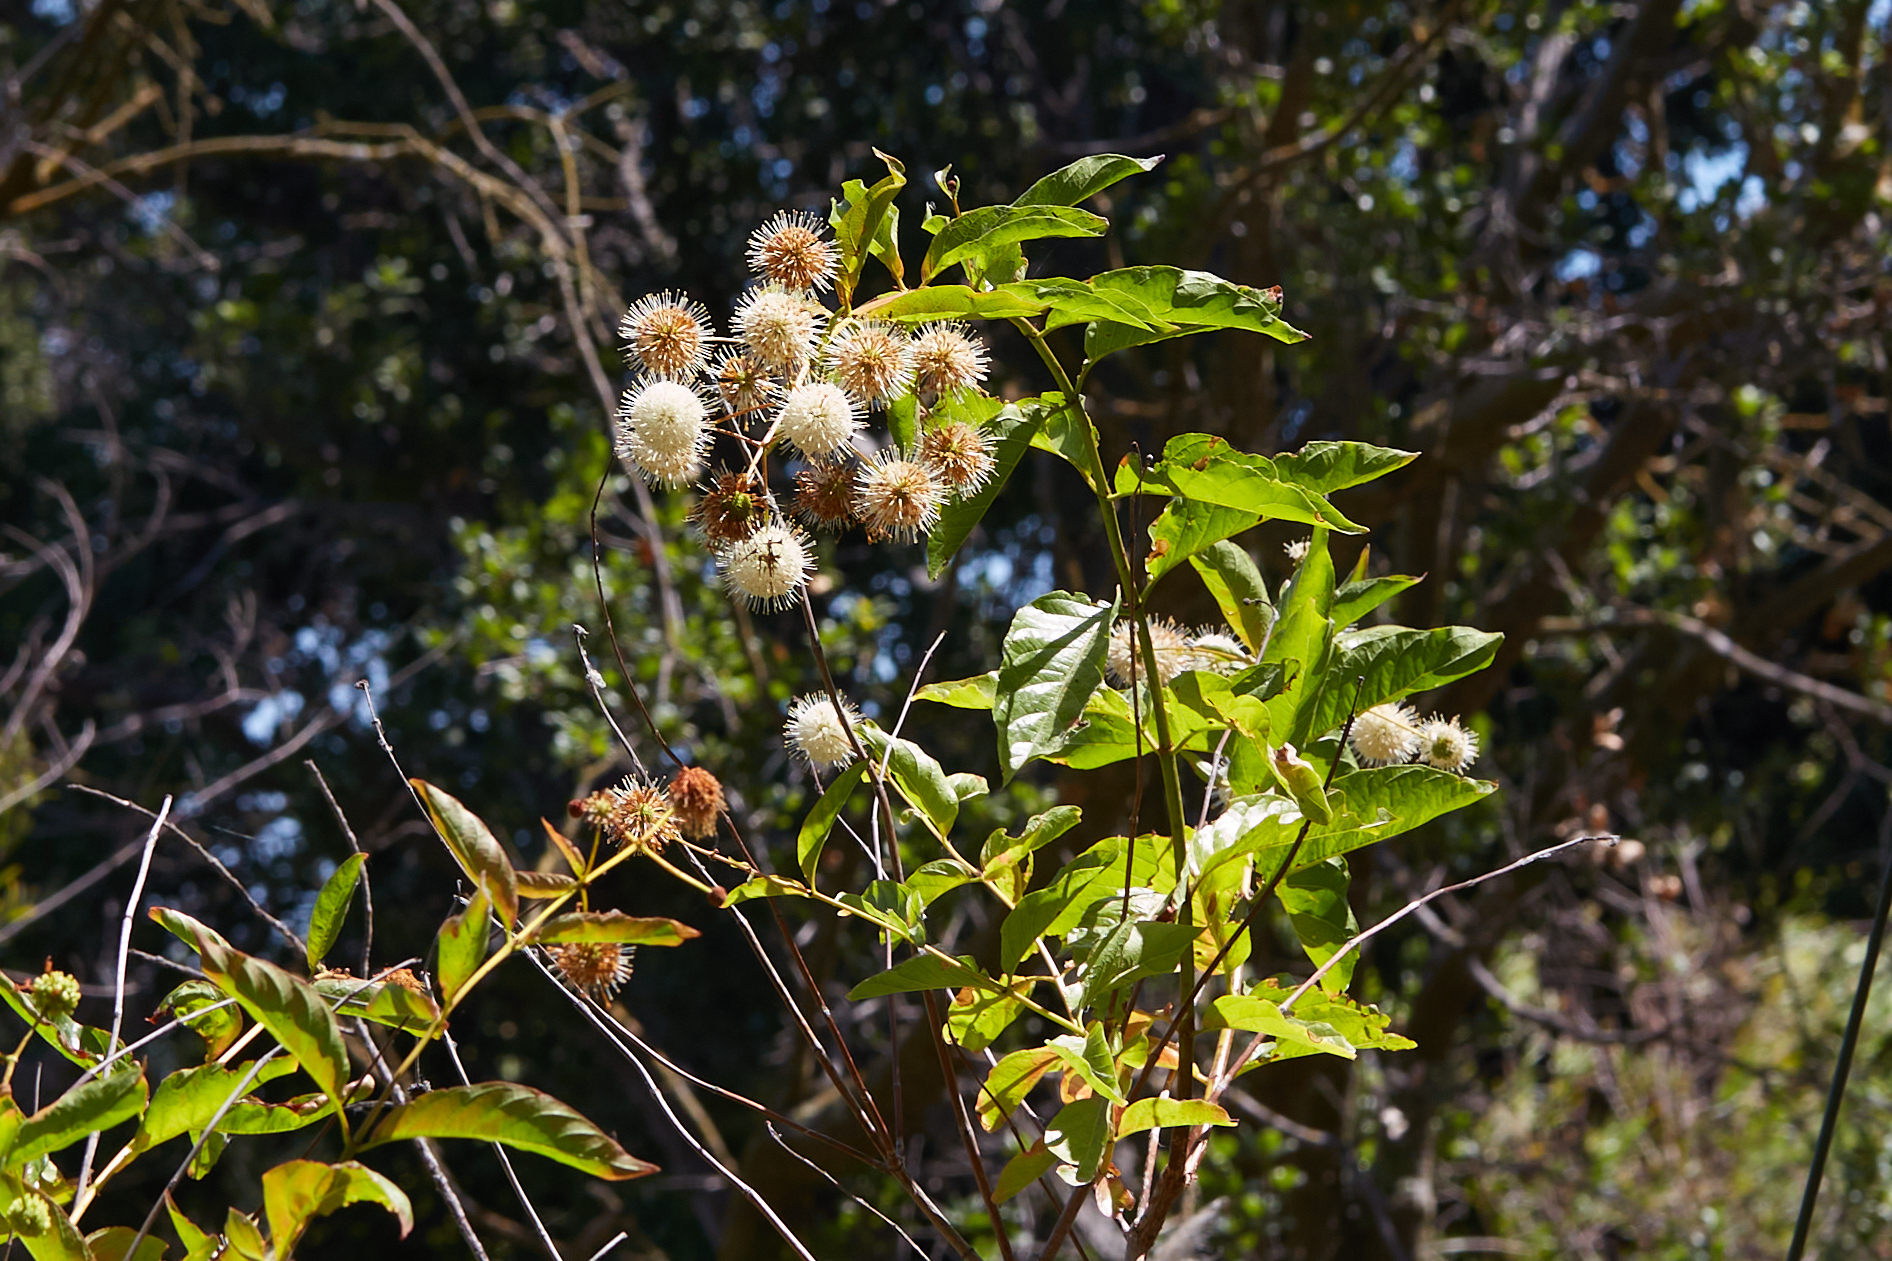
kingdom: Plantae
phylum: Tracheophyta
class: Magnoliopsida
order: Gentianales
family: Rubiaceae
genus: Cephalanthus
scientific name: Cephalanthus occidentalis
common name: Button-willow
